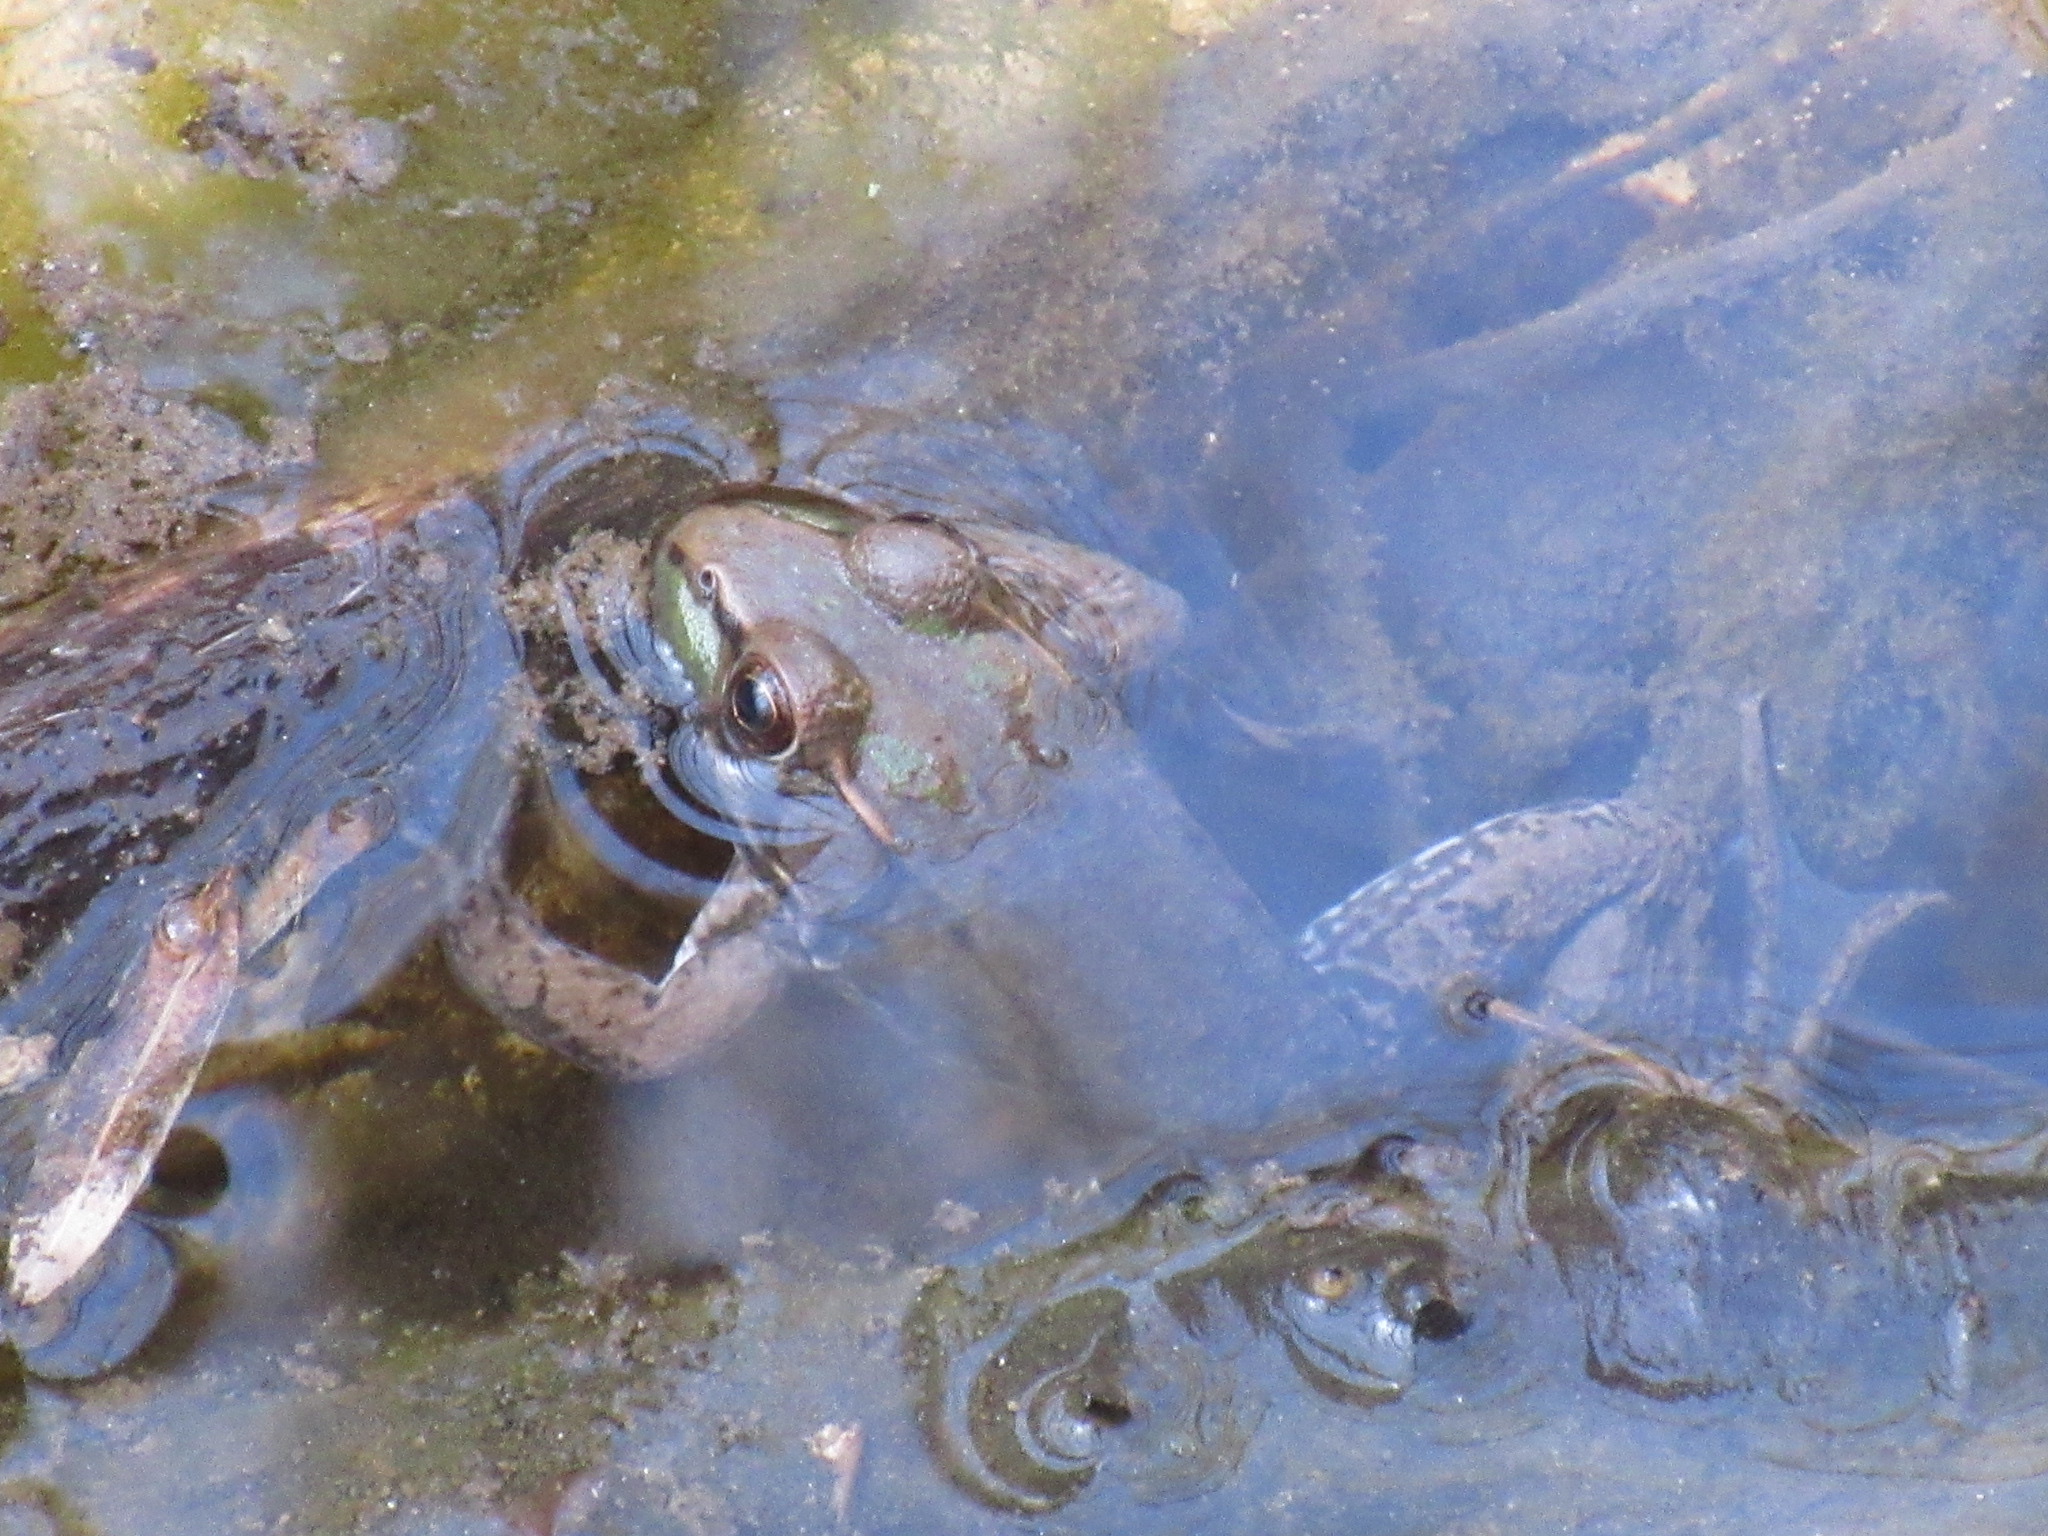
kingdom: Animalia
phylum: Chordata
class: Amphibia
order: Anura
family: Ranidae
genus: Lithobates
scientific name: Lithobates clamitans
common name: Green frog
